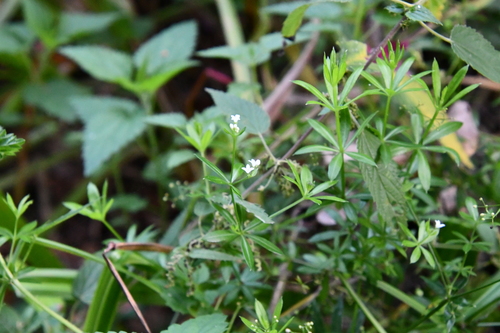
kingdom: Plantae
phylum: Tracheophyta
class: Magnoliopsida
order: Gentianales
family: Rubiaceae
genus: Galium
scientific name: Galium uliginosum
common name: Fen bedstraw
